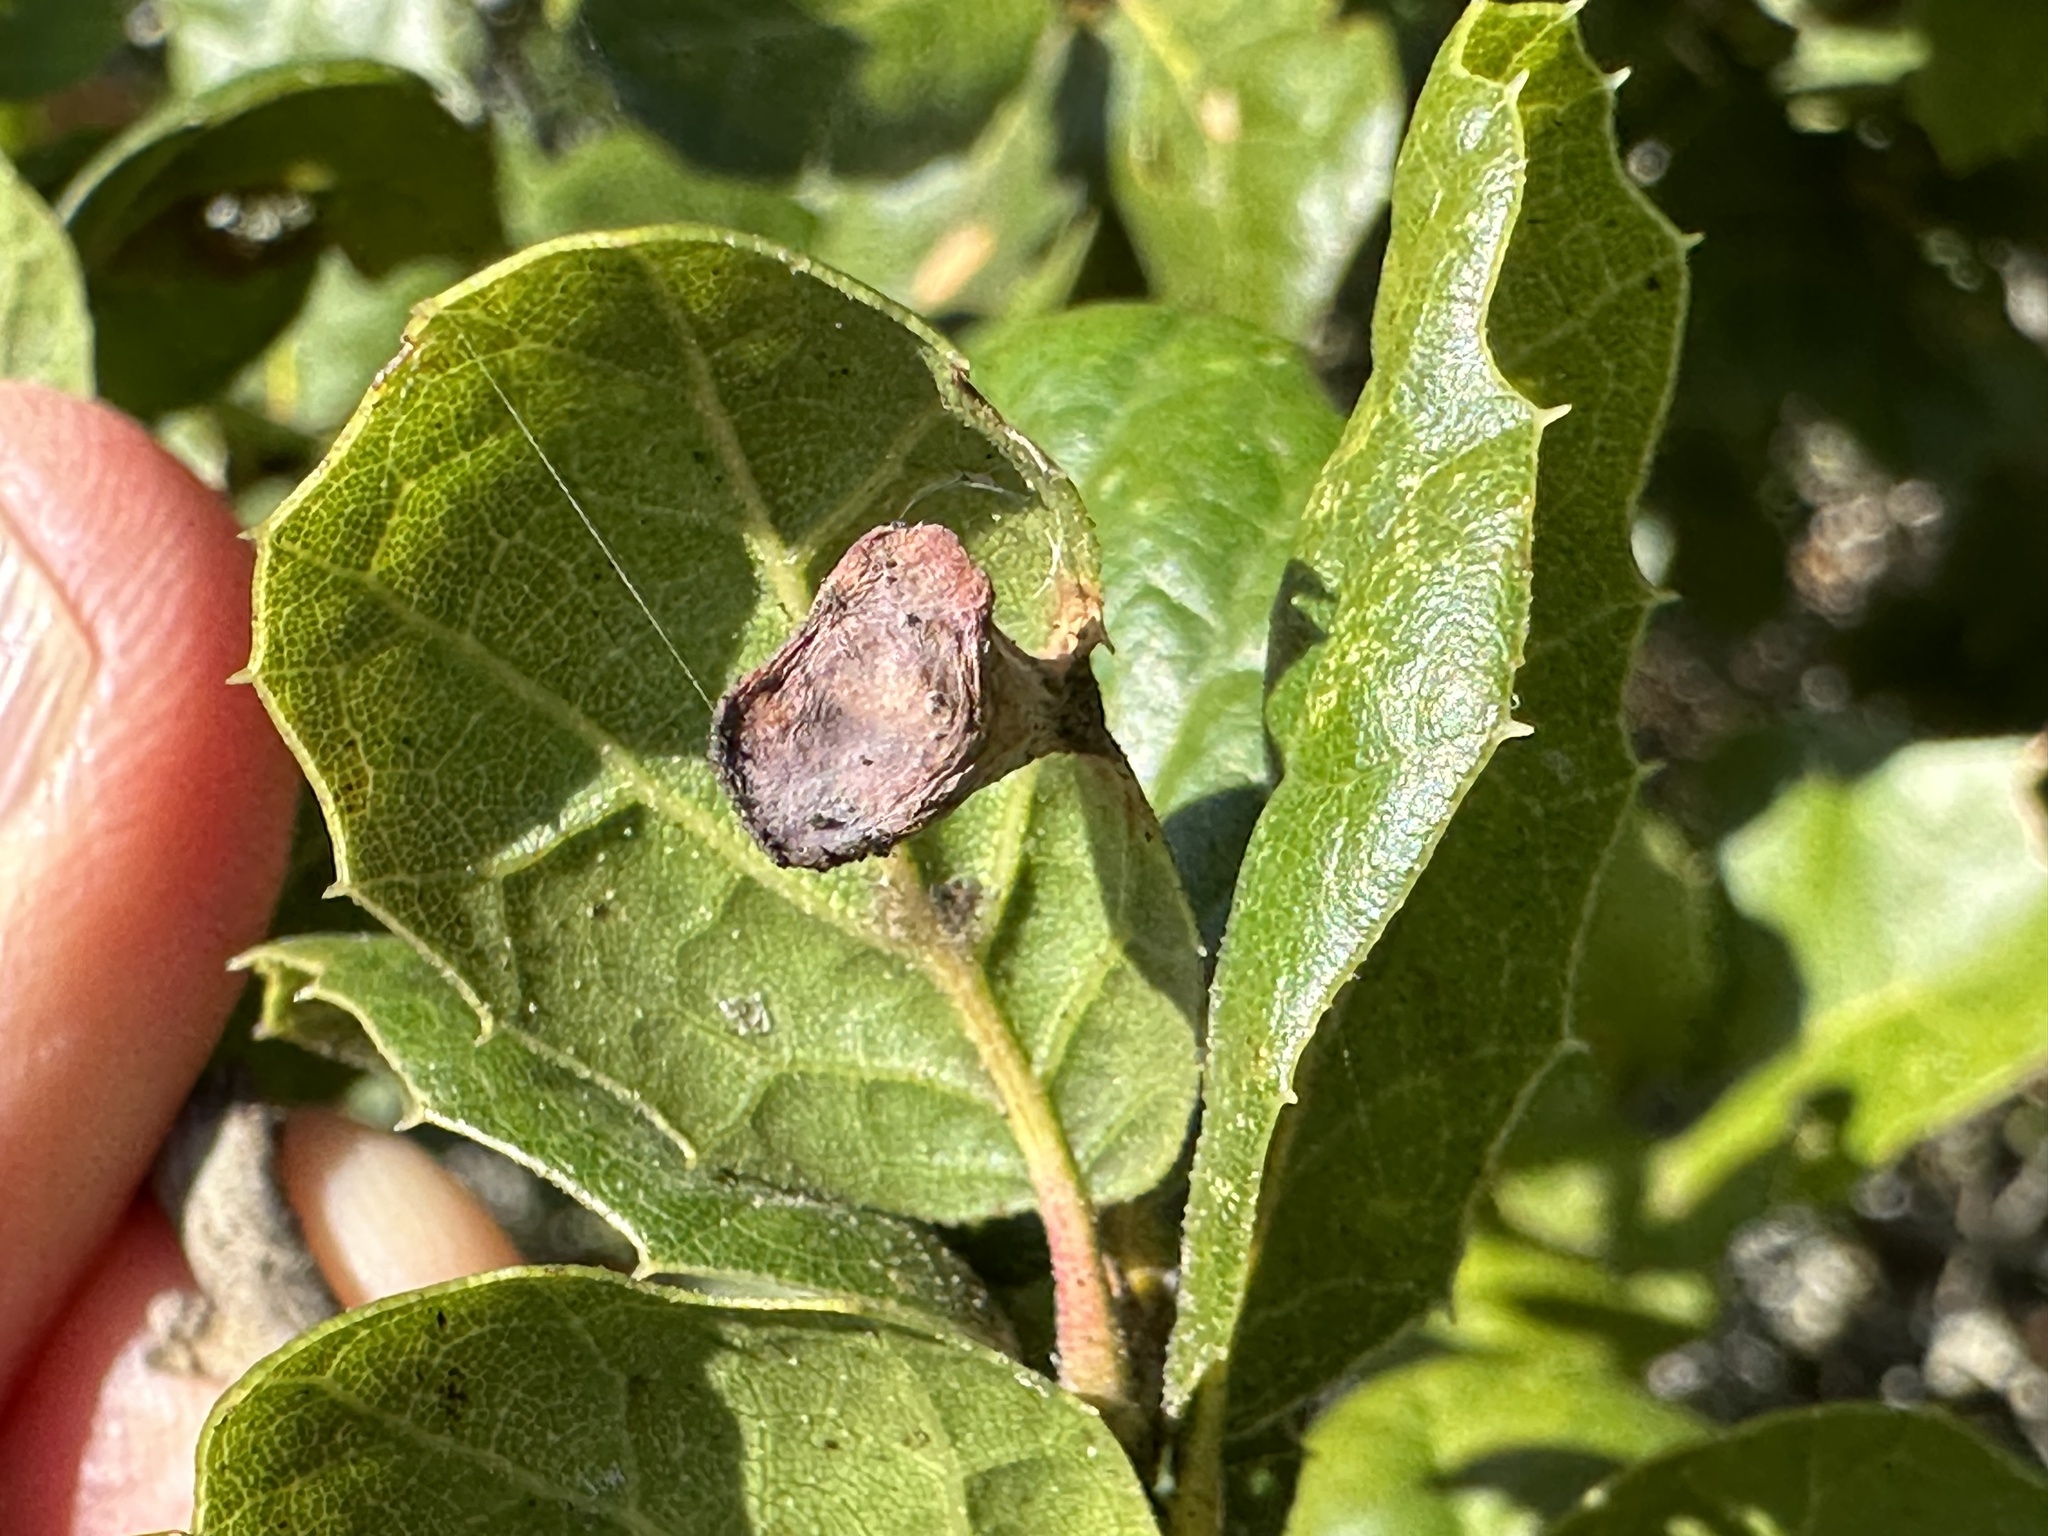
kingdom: Animalia
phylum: Arthropoda
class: Insecta
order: Hymenoptera
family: Cynipidae
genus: Amphibolips
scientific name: Amphibolips quercuspomiformis
